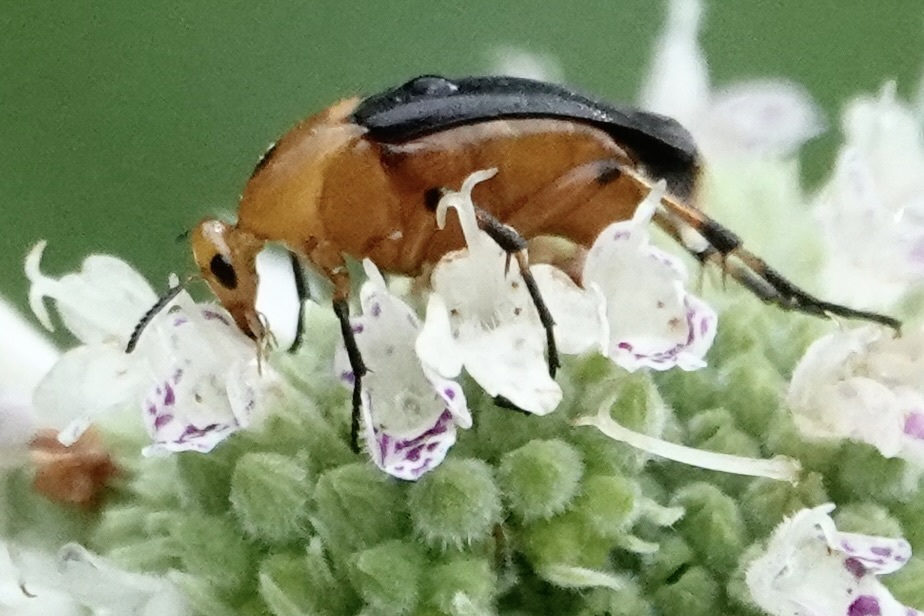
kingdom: Animalia
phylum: Arthropoda
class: Insecta
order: Coleoptera
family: Ripiphoridae
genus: Macrosiagon
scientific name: Macrosiagon limbatum
